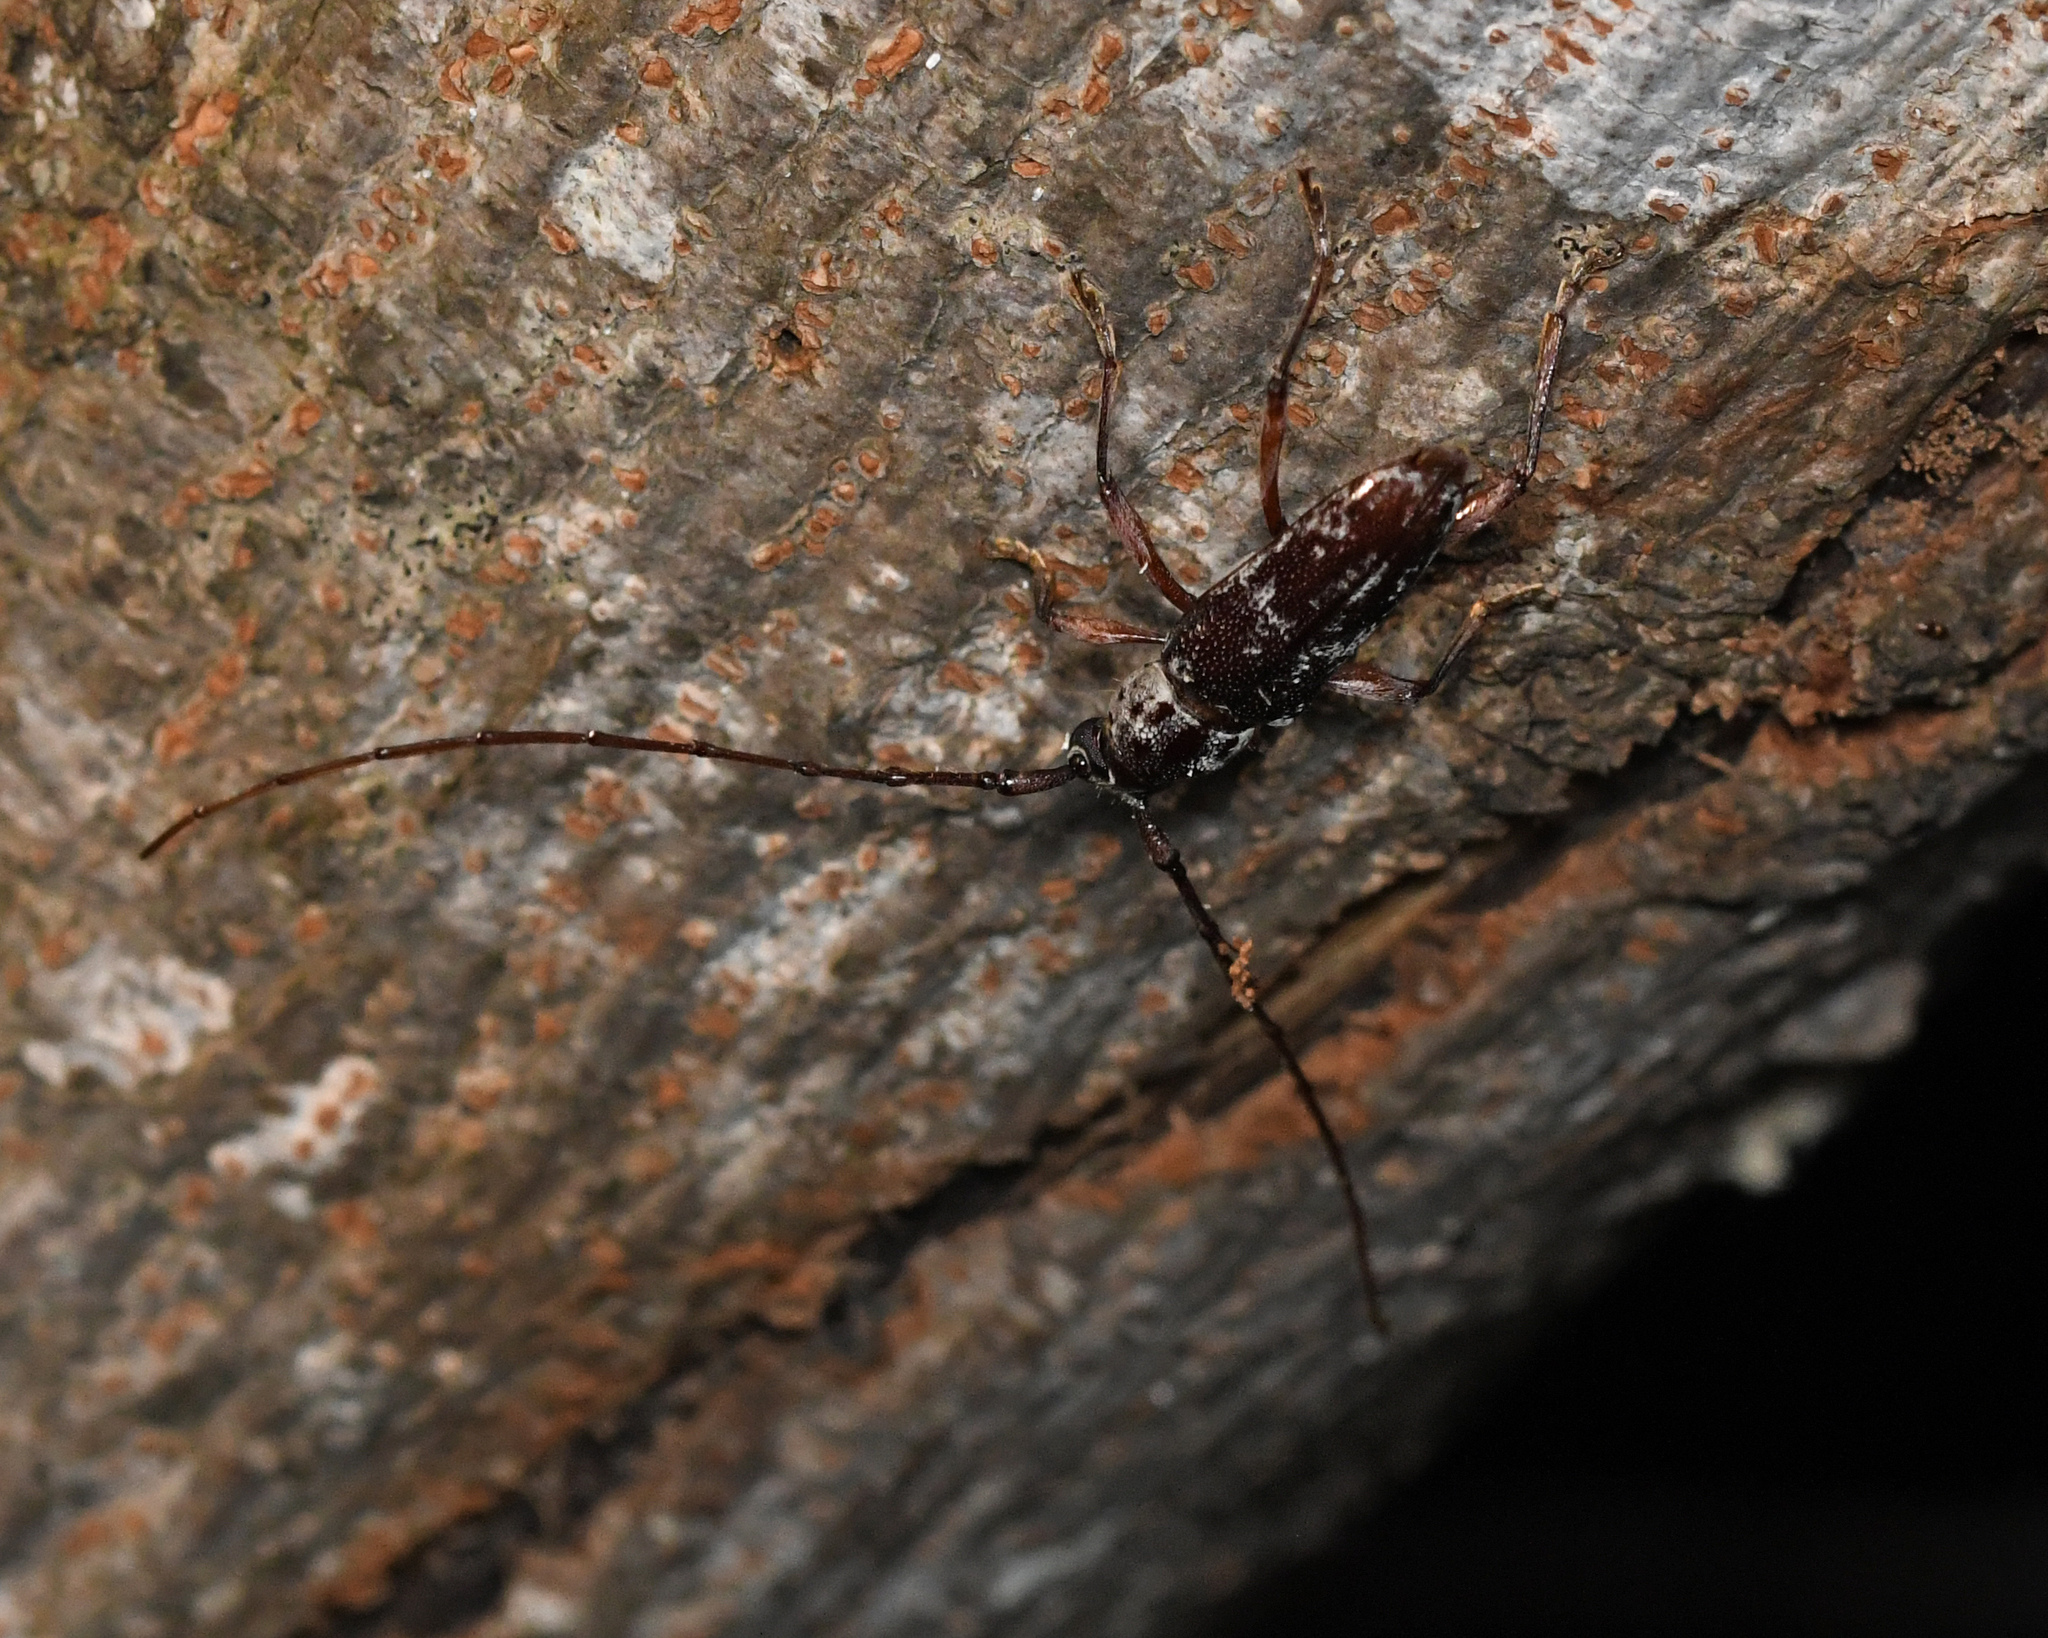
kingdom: Animalia
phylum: Arthropoda
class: Insecta
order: Coleoptera
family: Cerambycidae
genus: Elaphidion
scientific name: Elaphidion irroratum
